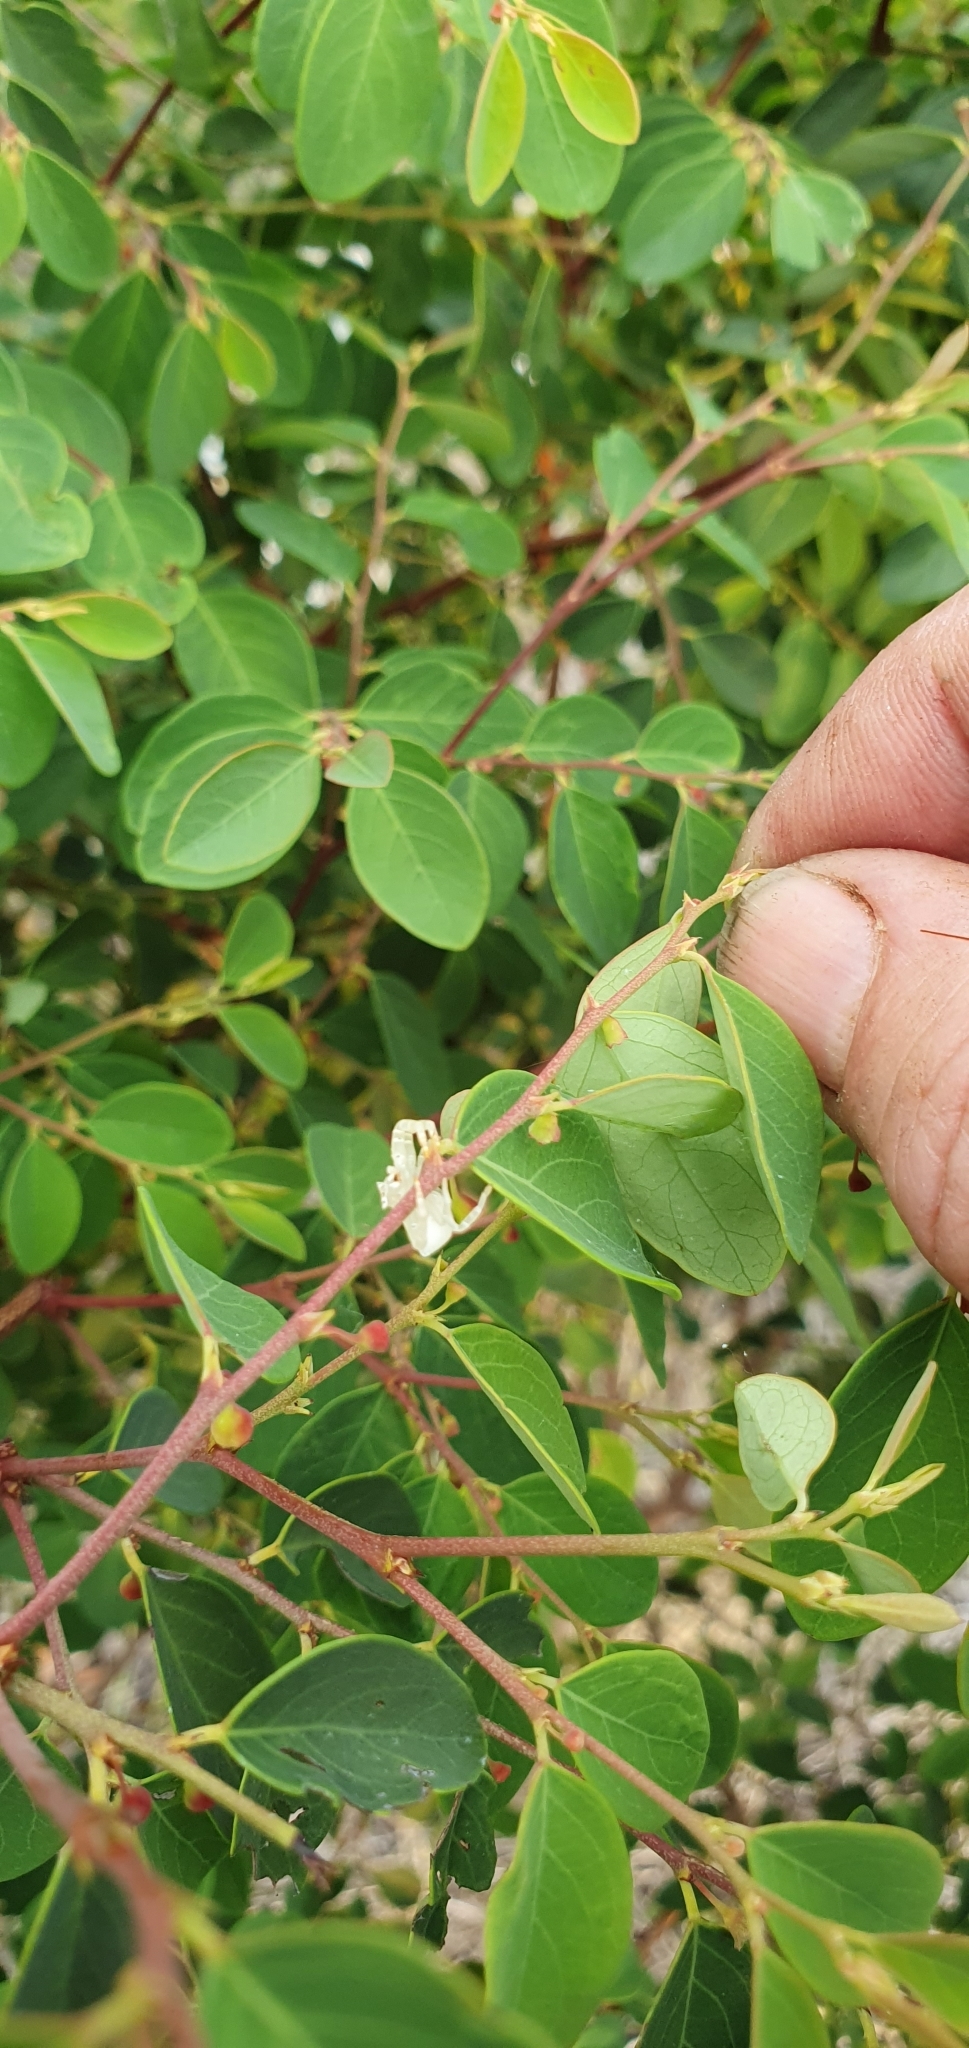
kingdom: Animalia
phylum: Arthropoda
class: Arachnida
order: Araneae
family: Thomisidae
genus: Thomisus
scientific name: Thomisus spectabilis
